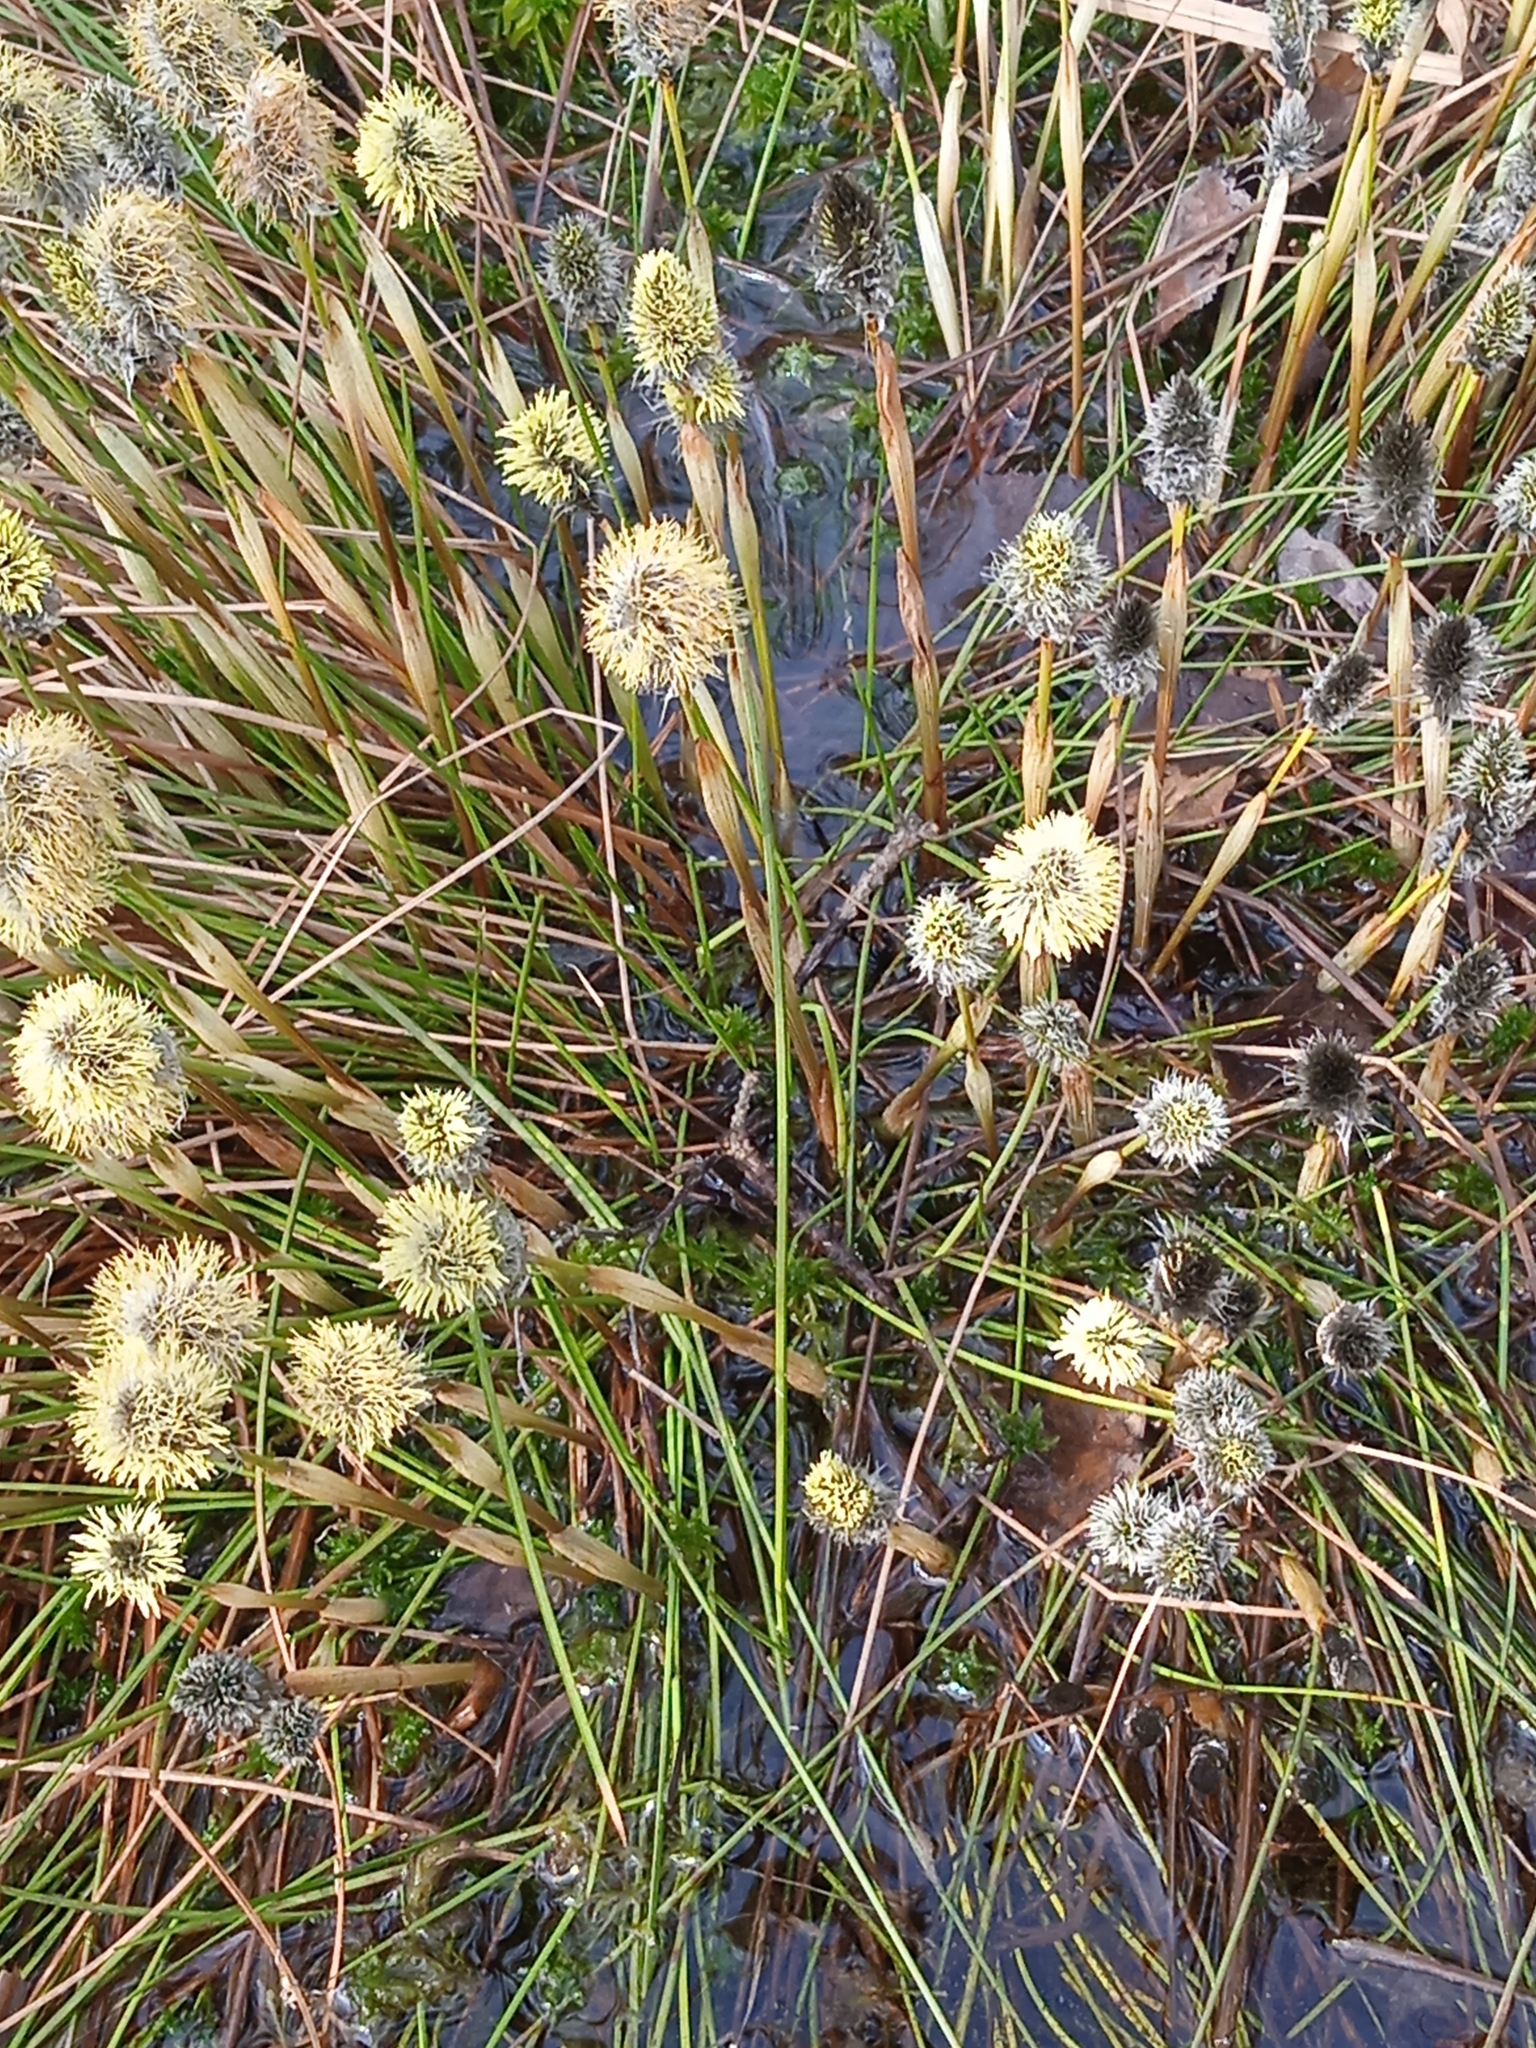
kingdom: Plantae
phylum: Tracheophyta
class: Liliopsida
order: Poales
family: Cyperaceae
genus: Eriophorum
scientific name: Eriophorum vaginatum
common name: Hare's-tail cottongrass
